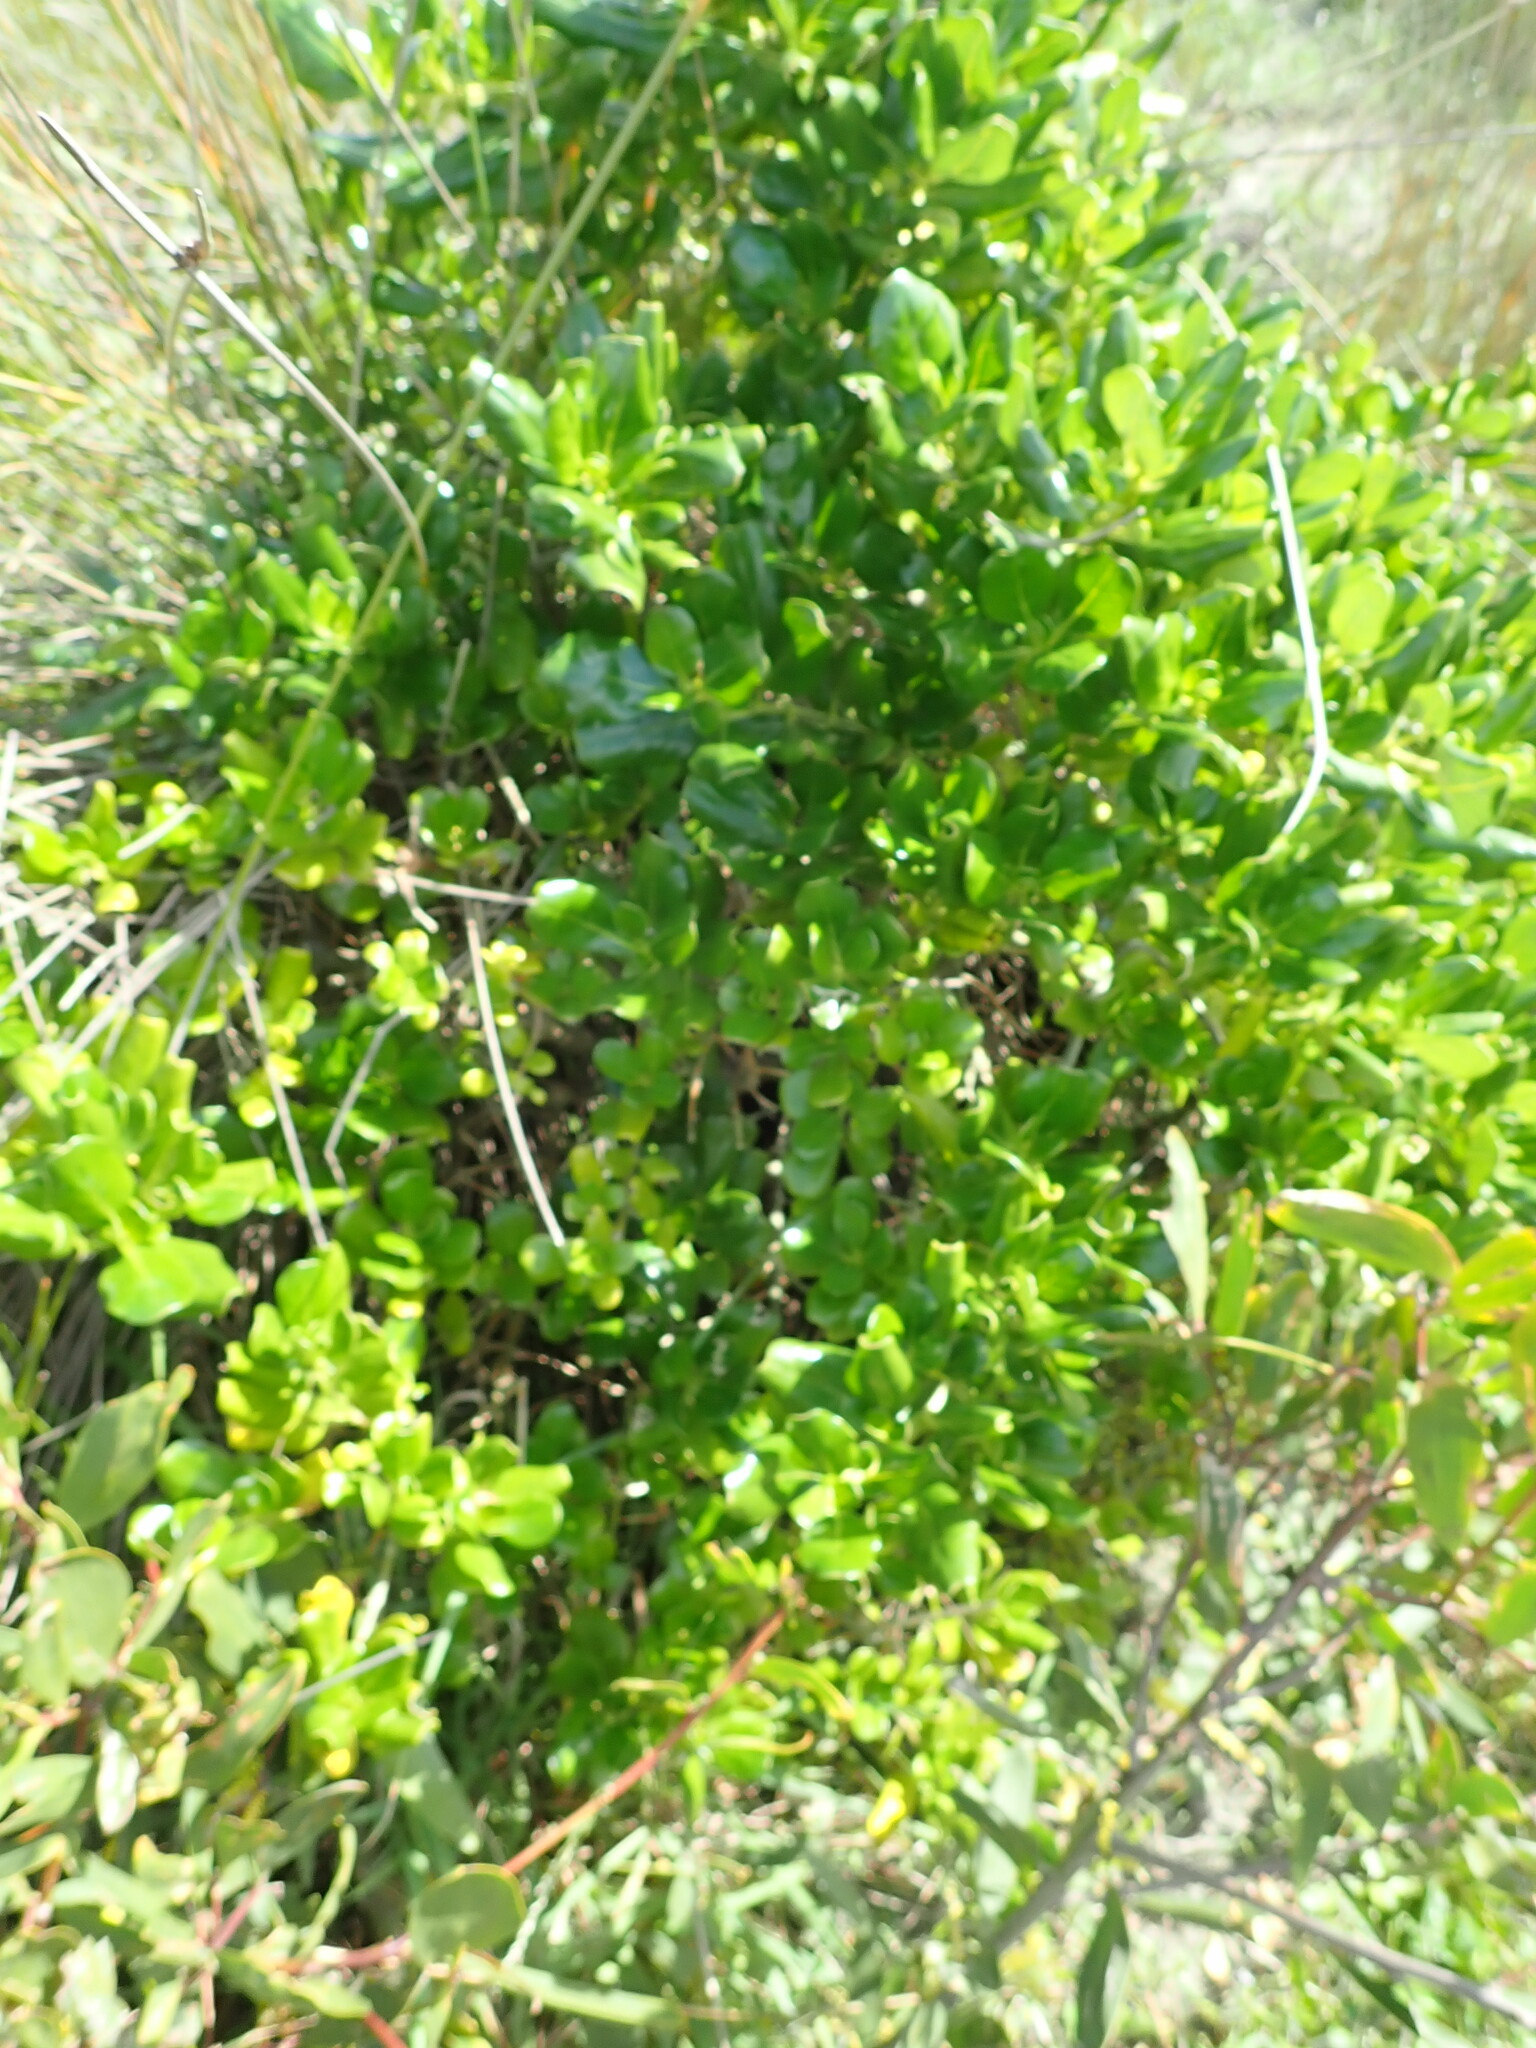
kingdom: Plantae
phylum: Tracheophyta
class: Magnoliopsida
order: Gentianales
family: Rubiaceae
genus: Coprosma
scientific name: Coprosma repens
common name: Tree bedstraw
